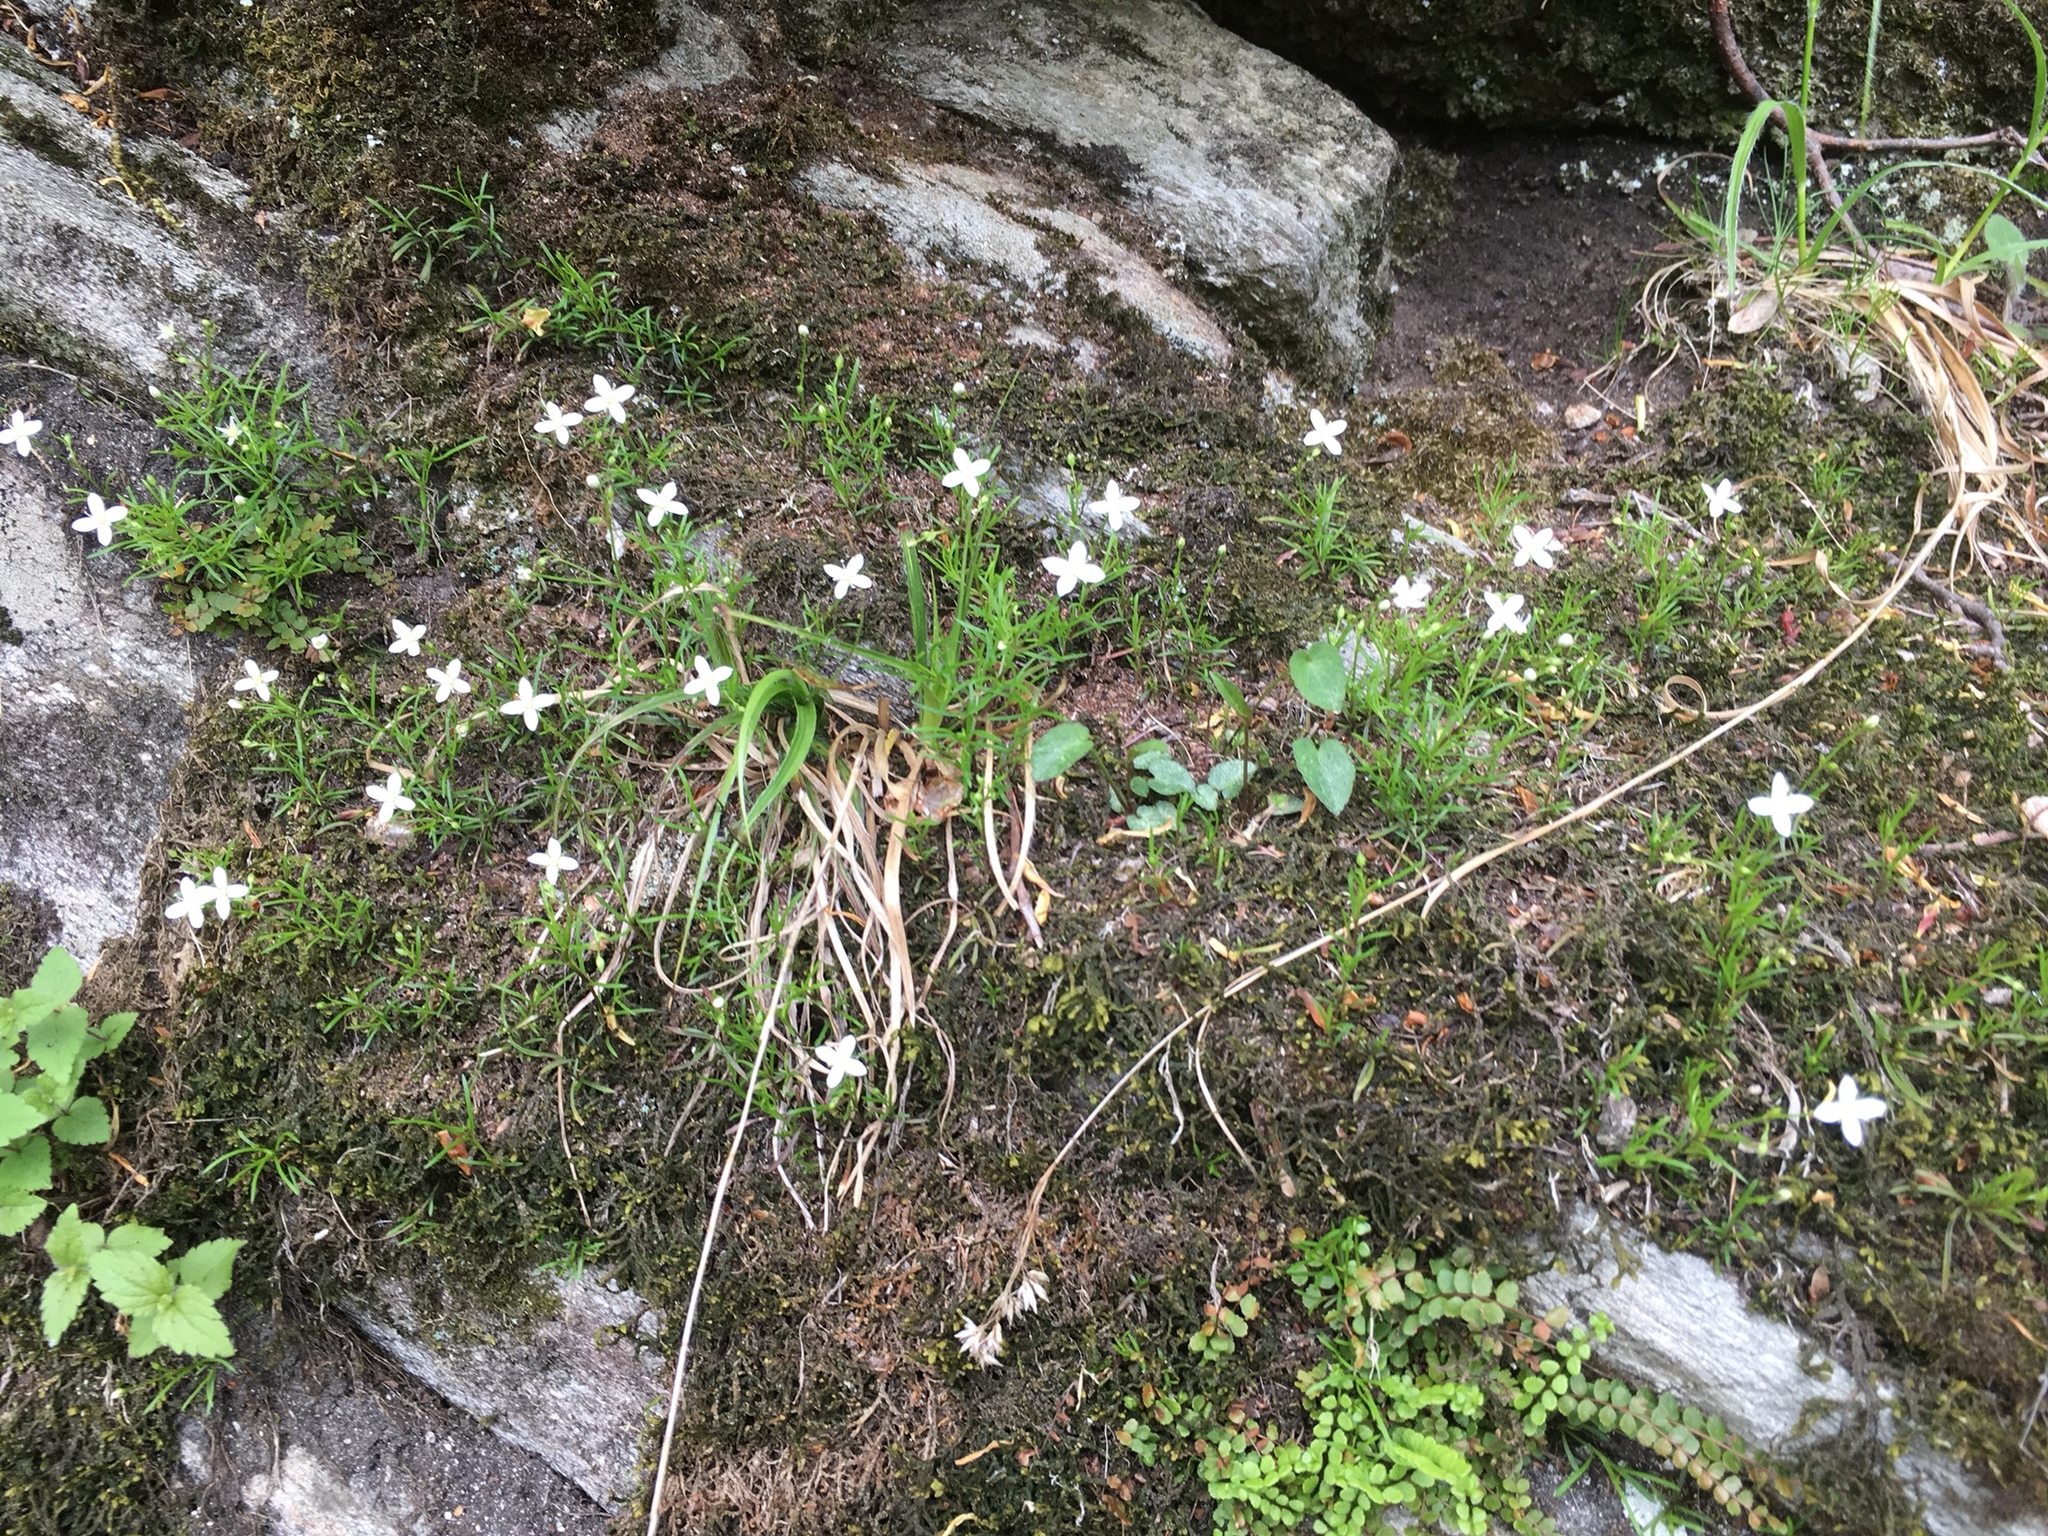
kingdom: Plantae
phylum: Tracheophyta
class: Magnoliopsida
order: Caryophyllales
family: Caryophyllaceae
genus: Moehringia
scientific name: Moehringia muscosa
